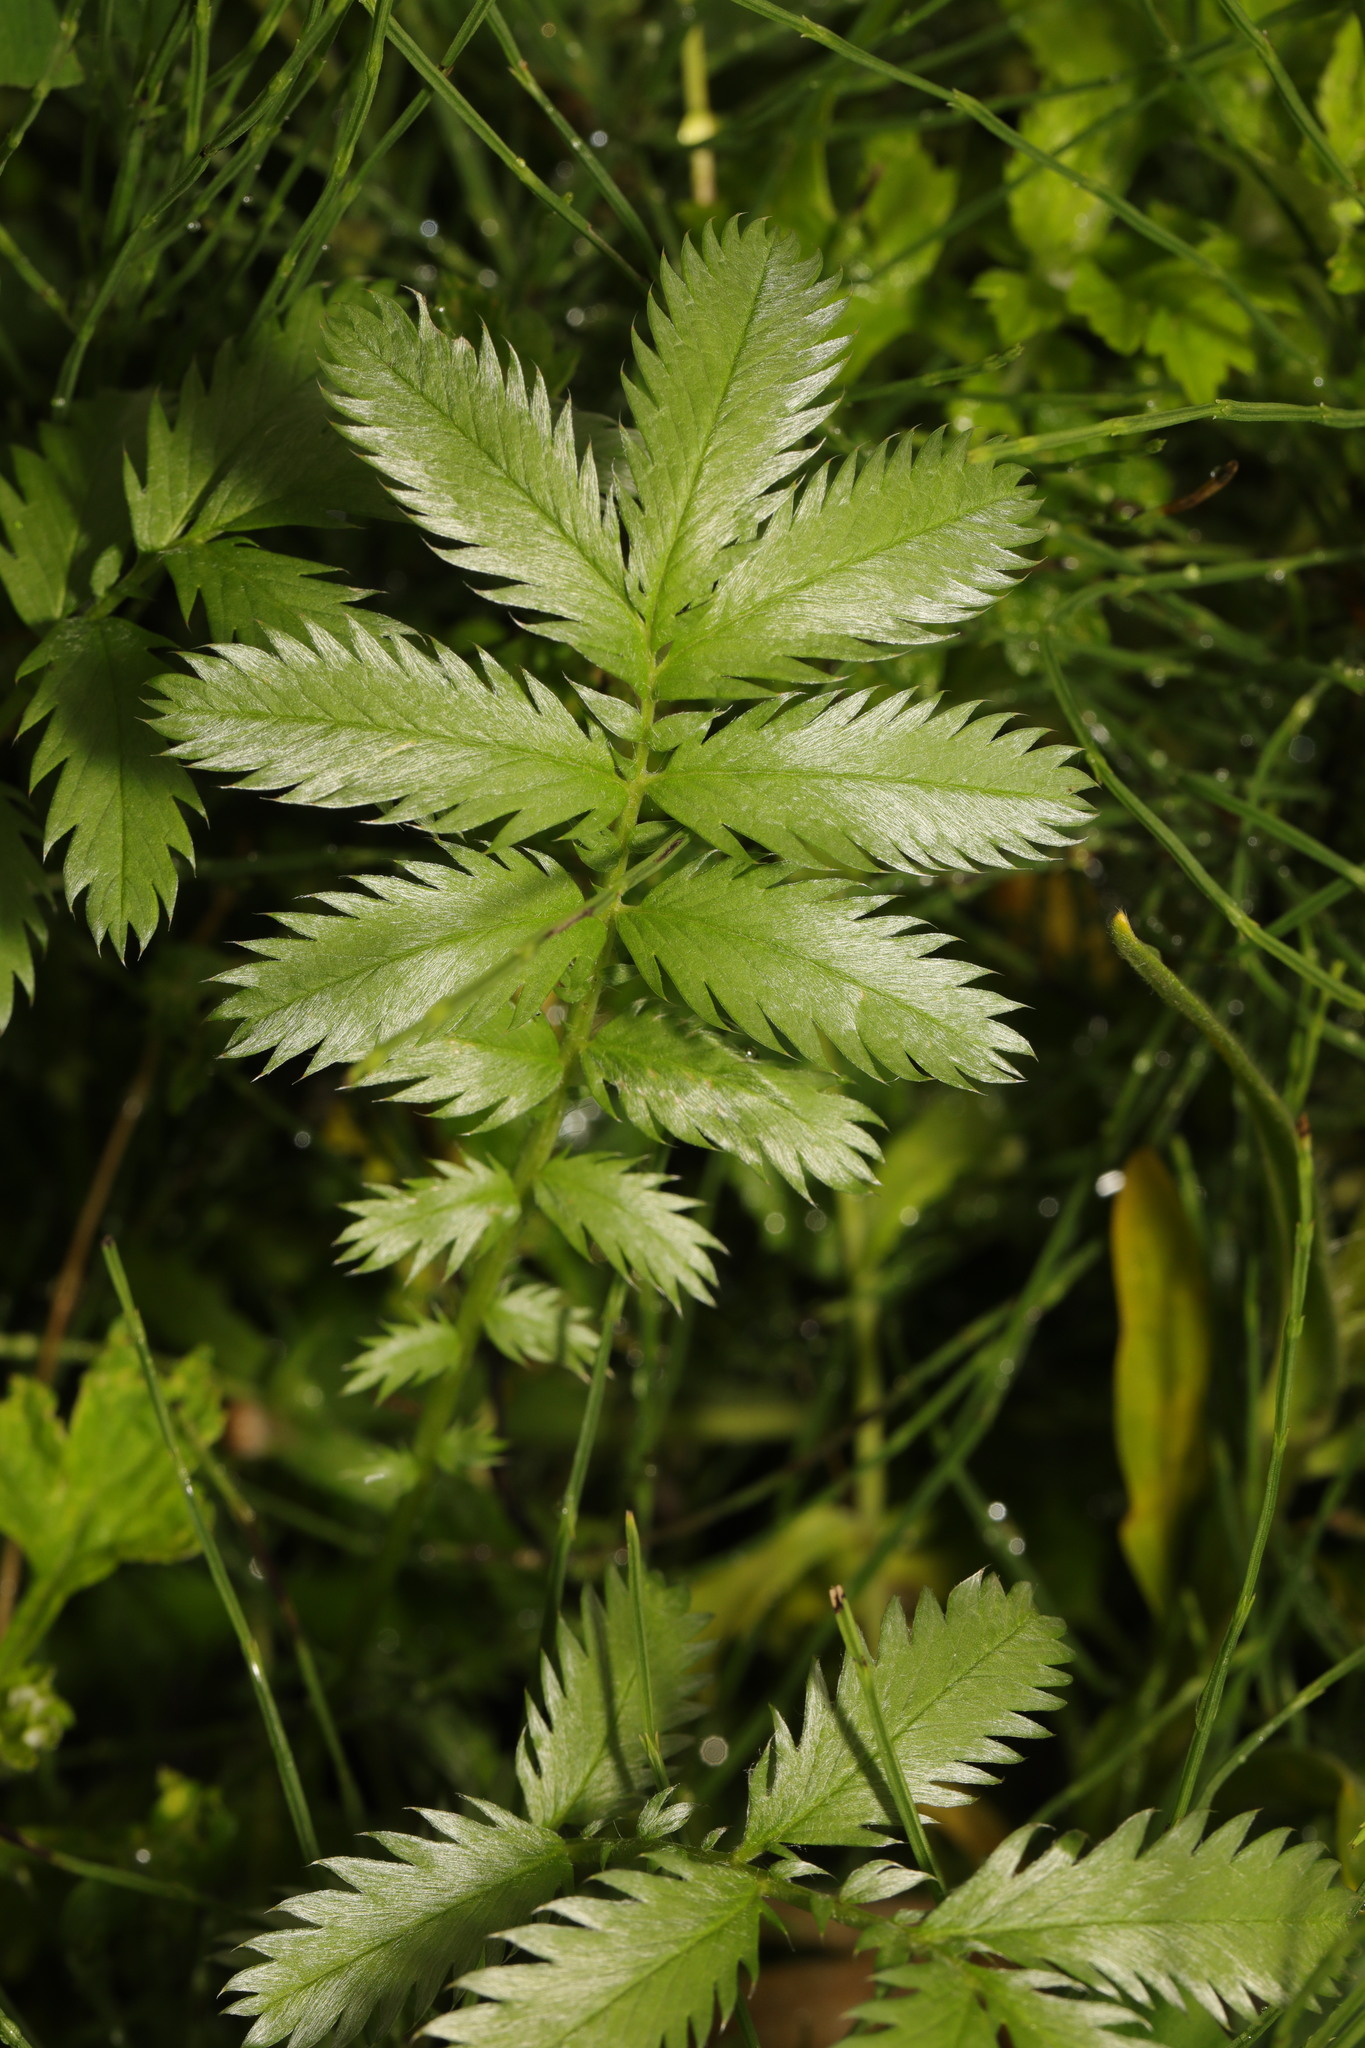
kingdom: Plantae
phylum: Tracheophyta
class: Magnoliopsida
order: Rosales
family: Rosaceae
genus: Argentina
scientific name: Argentina anserina
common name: Common silverweed
